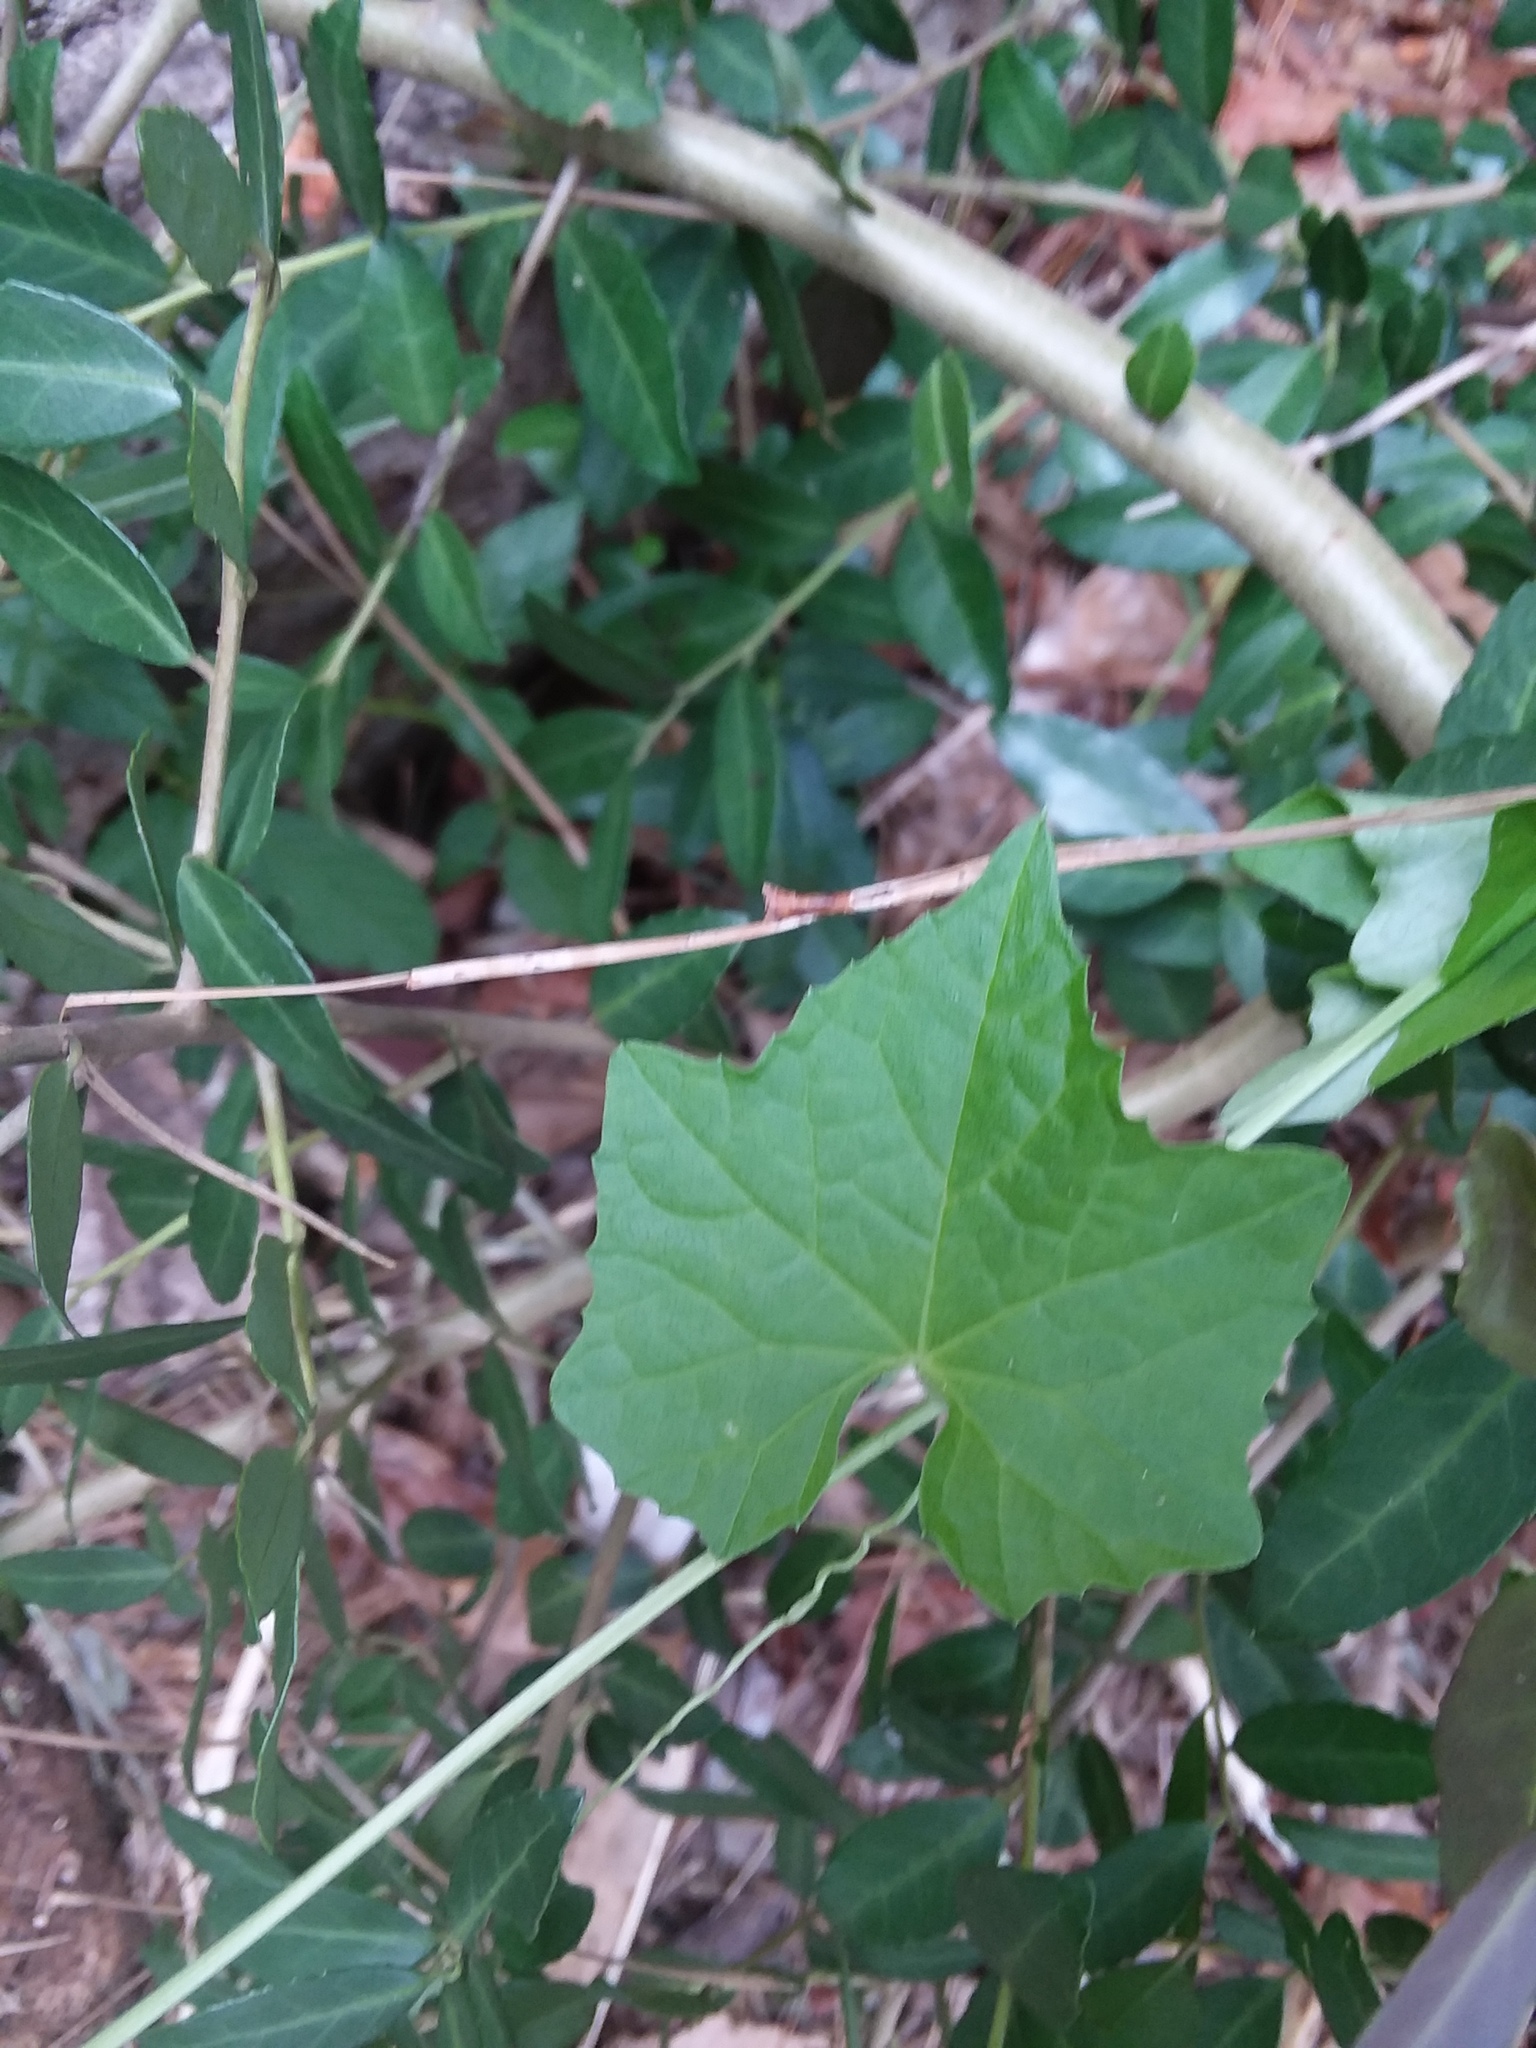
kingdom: Plantae
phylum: Tracheophyta
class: Magnoliopsida
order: Cucurbitales
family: Cucurbitaceae
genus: Melothria
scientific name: Melothria pendula
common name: Creeping-cucumber
